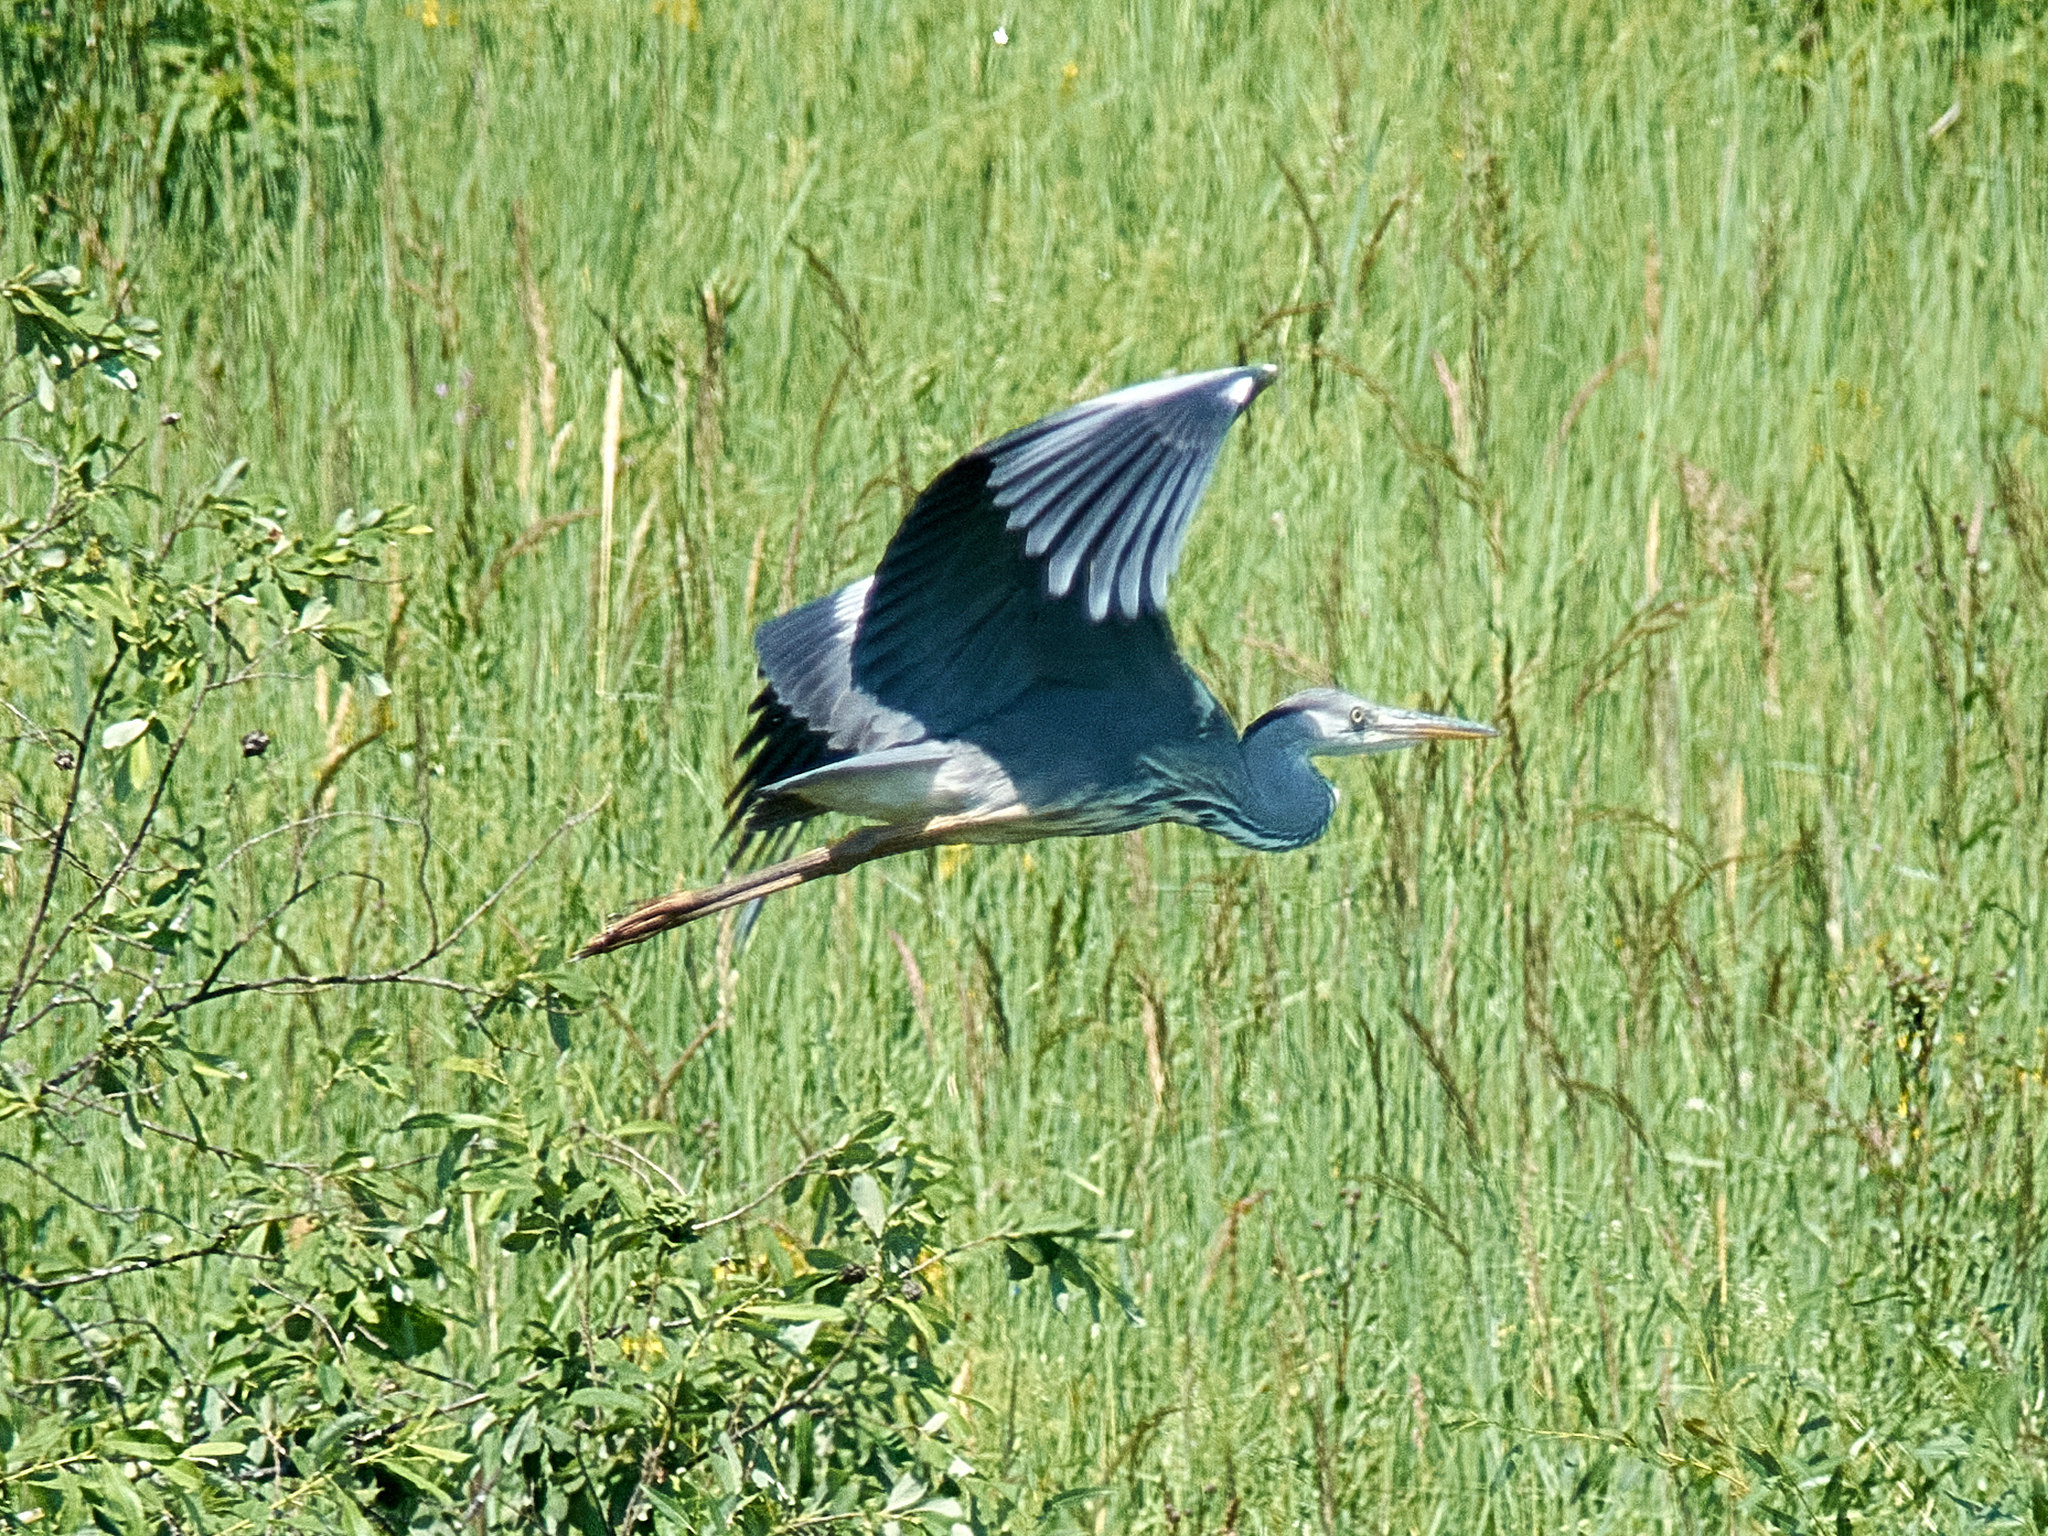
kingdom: Animalia
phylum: Chordata
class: Aves
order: Pelecaniformes
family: Ardeidae
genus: Ardea
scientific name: Ardea cinerea
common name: Grey heron
